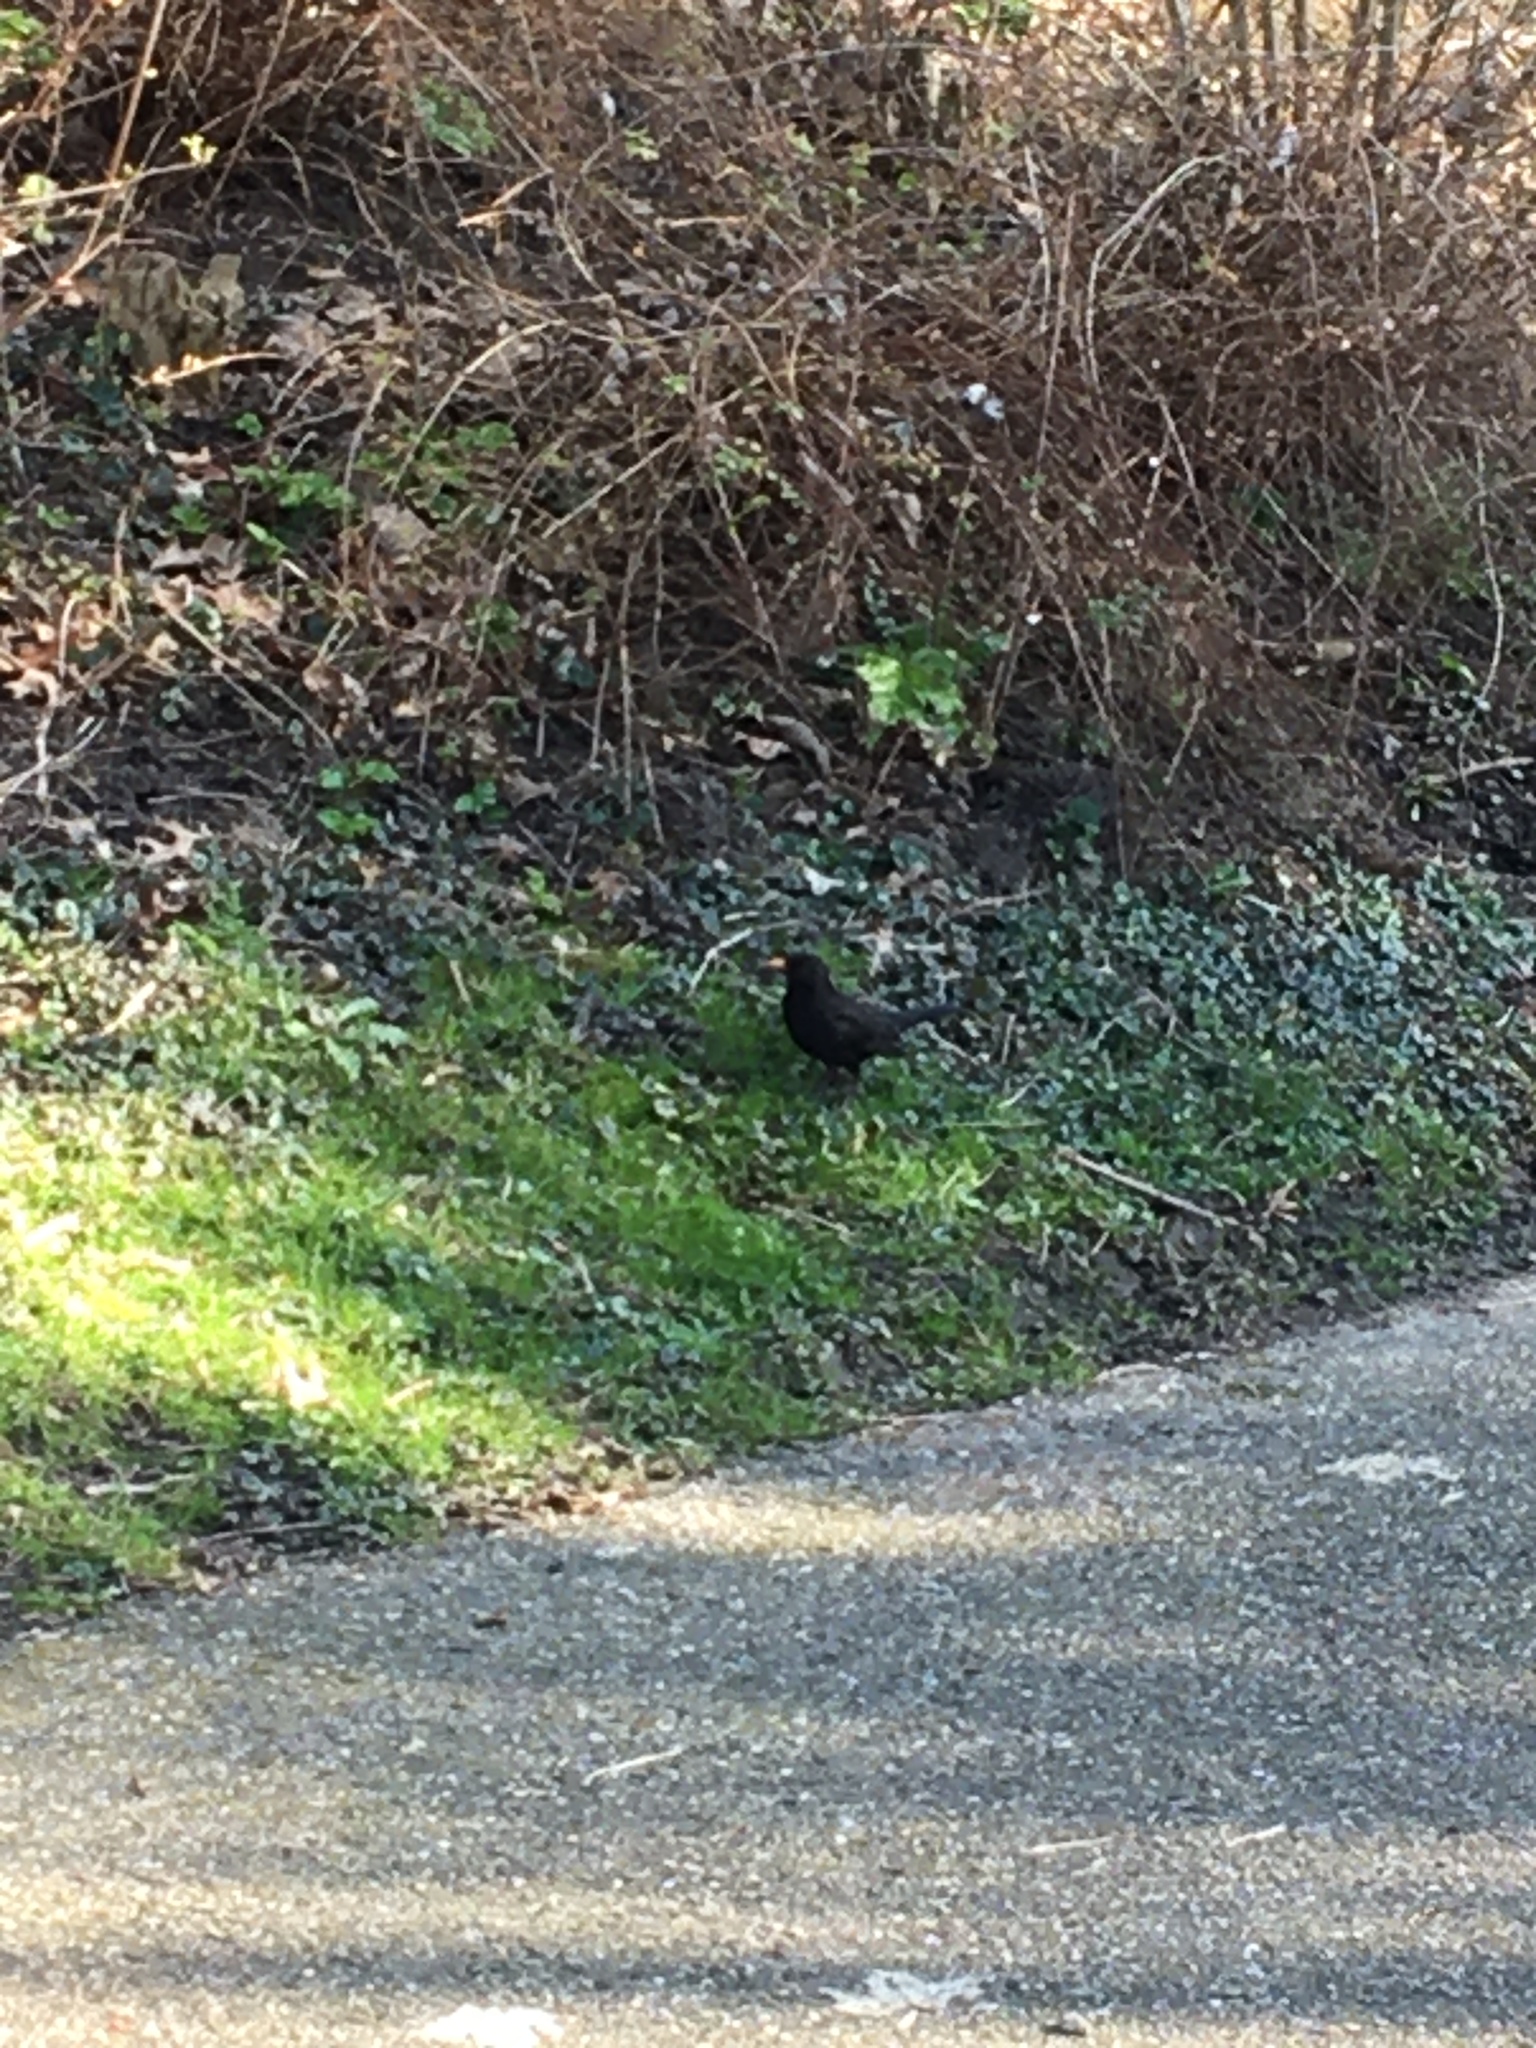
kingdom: Animalia
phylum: Chordata
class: Aves
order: Passeriformes
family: Turdidae
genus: Turdus
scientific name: Turdus merula
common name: Common blackbird
